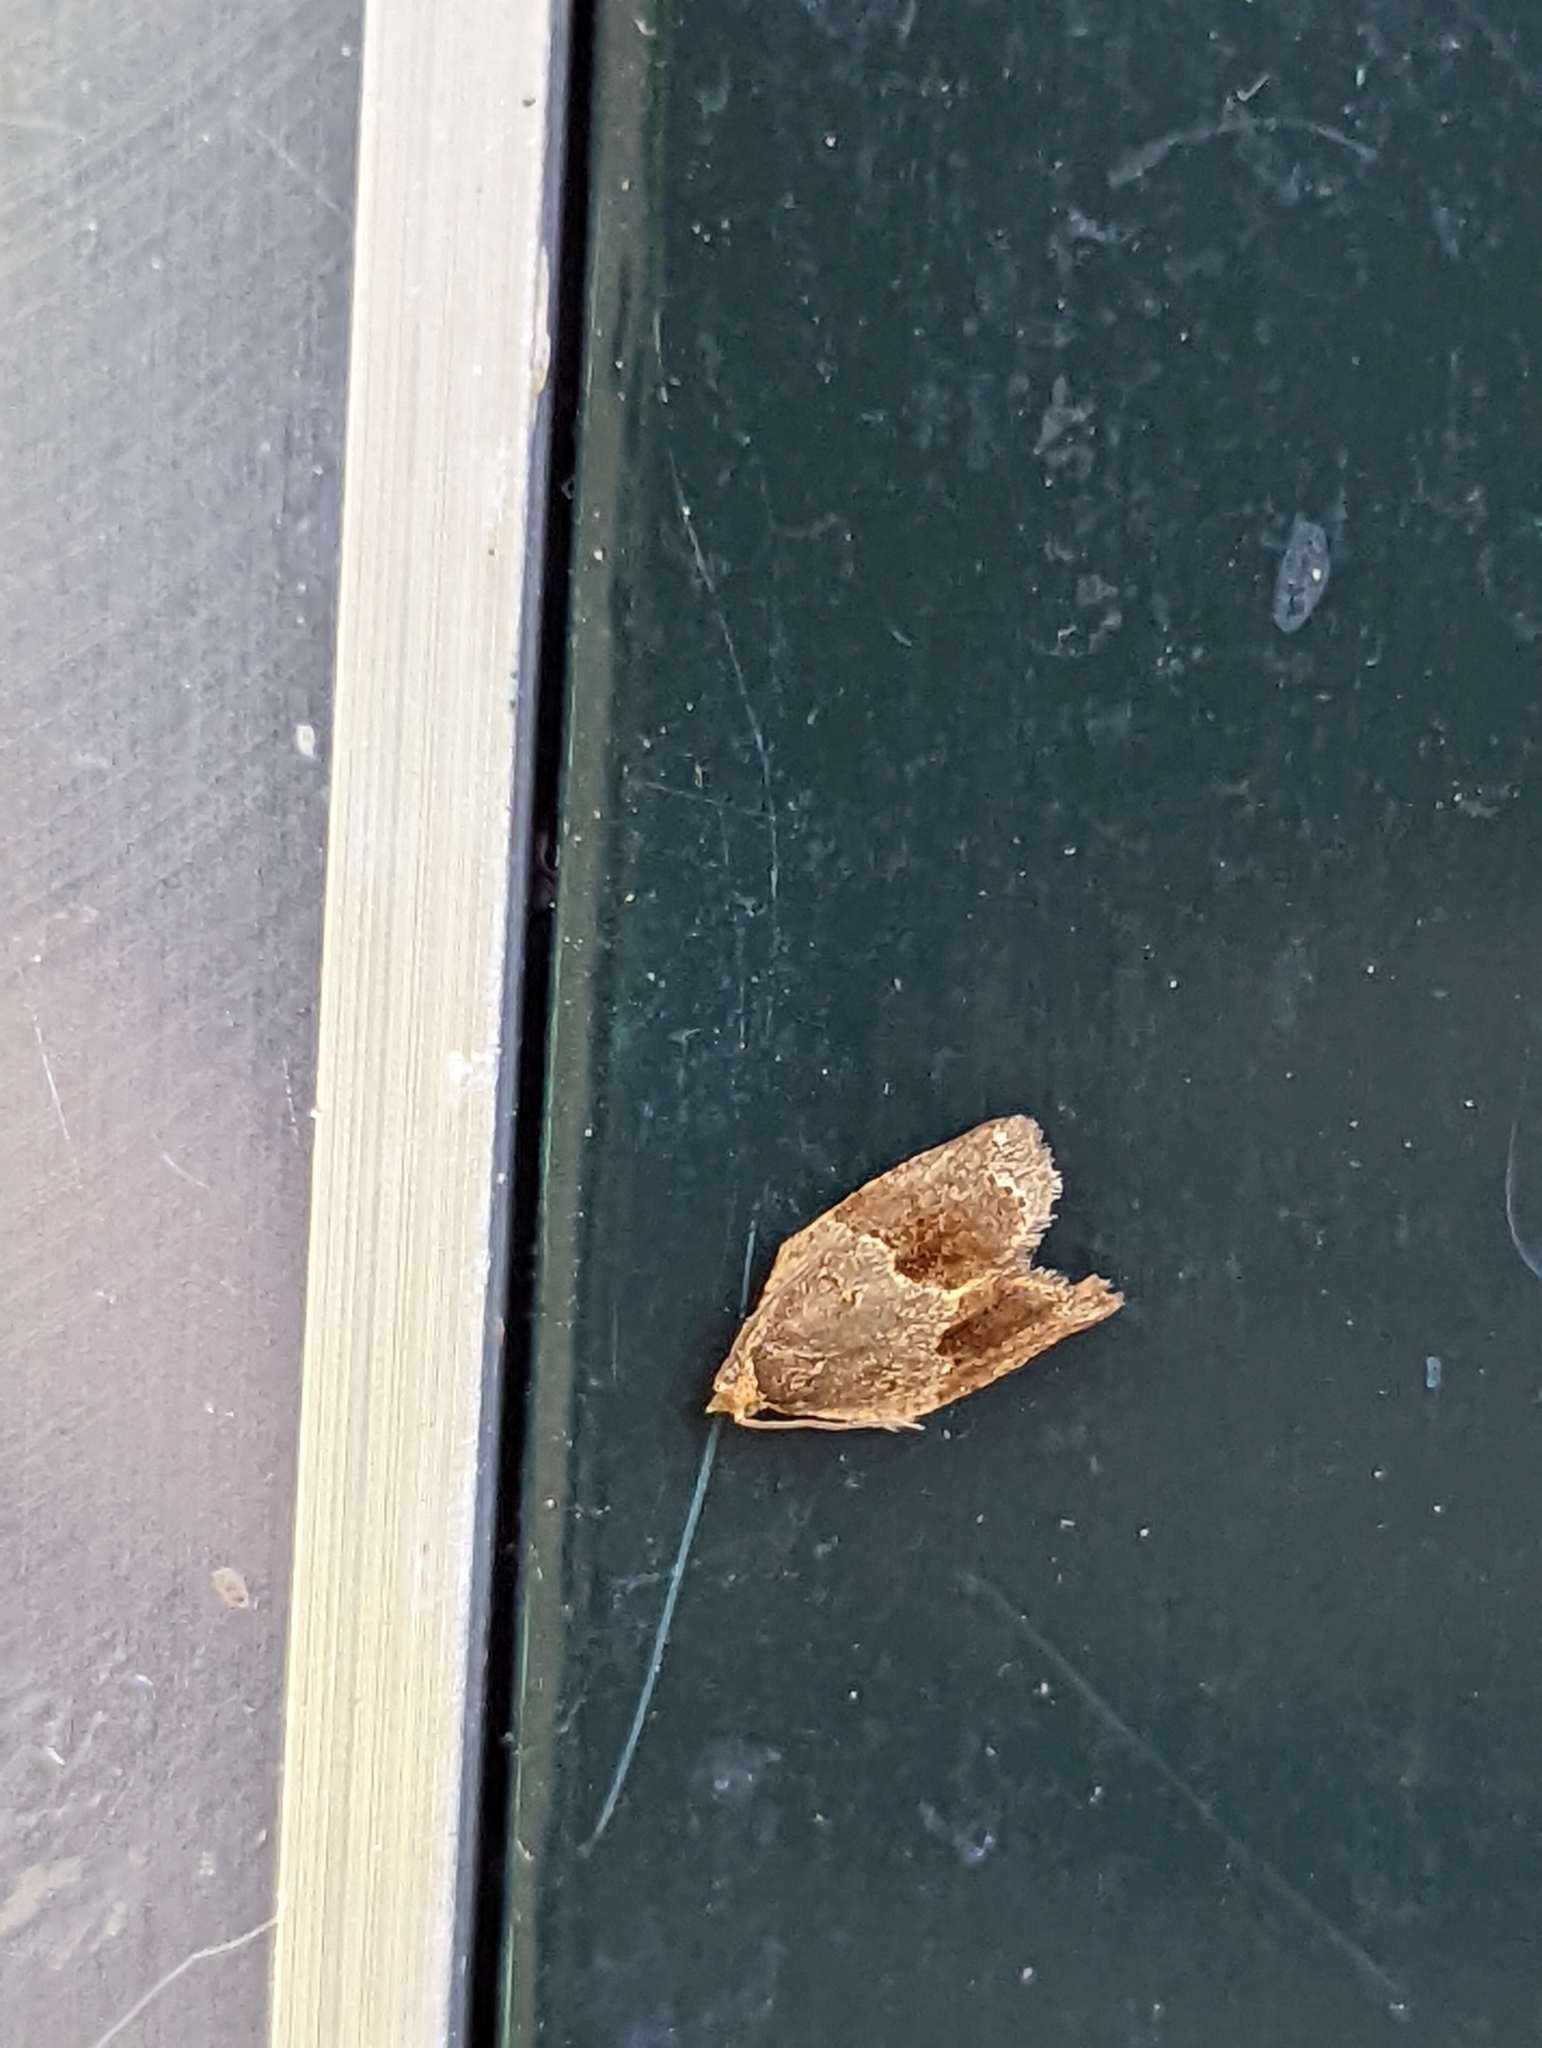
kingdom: Animalia
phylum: Arthropoda
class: Insecta
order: Lepidoptera
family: Tortricidae
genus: Clepsis
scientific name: Clepsis dumicolana
